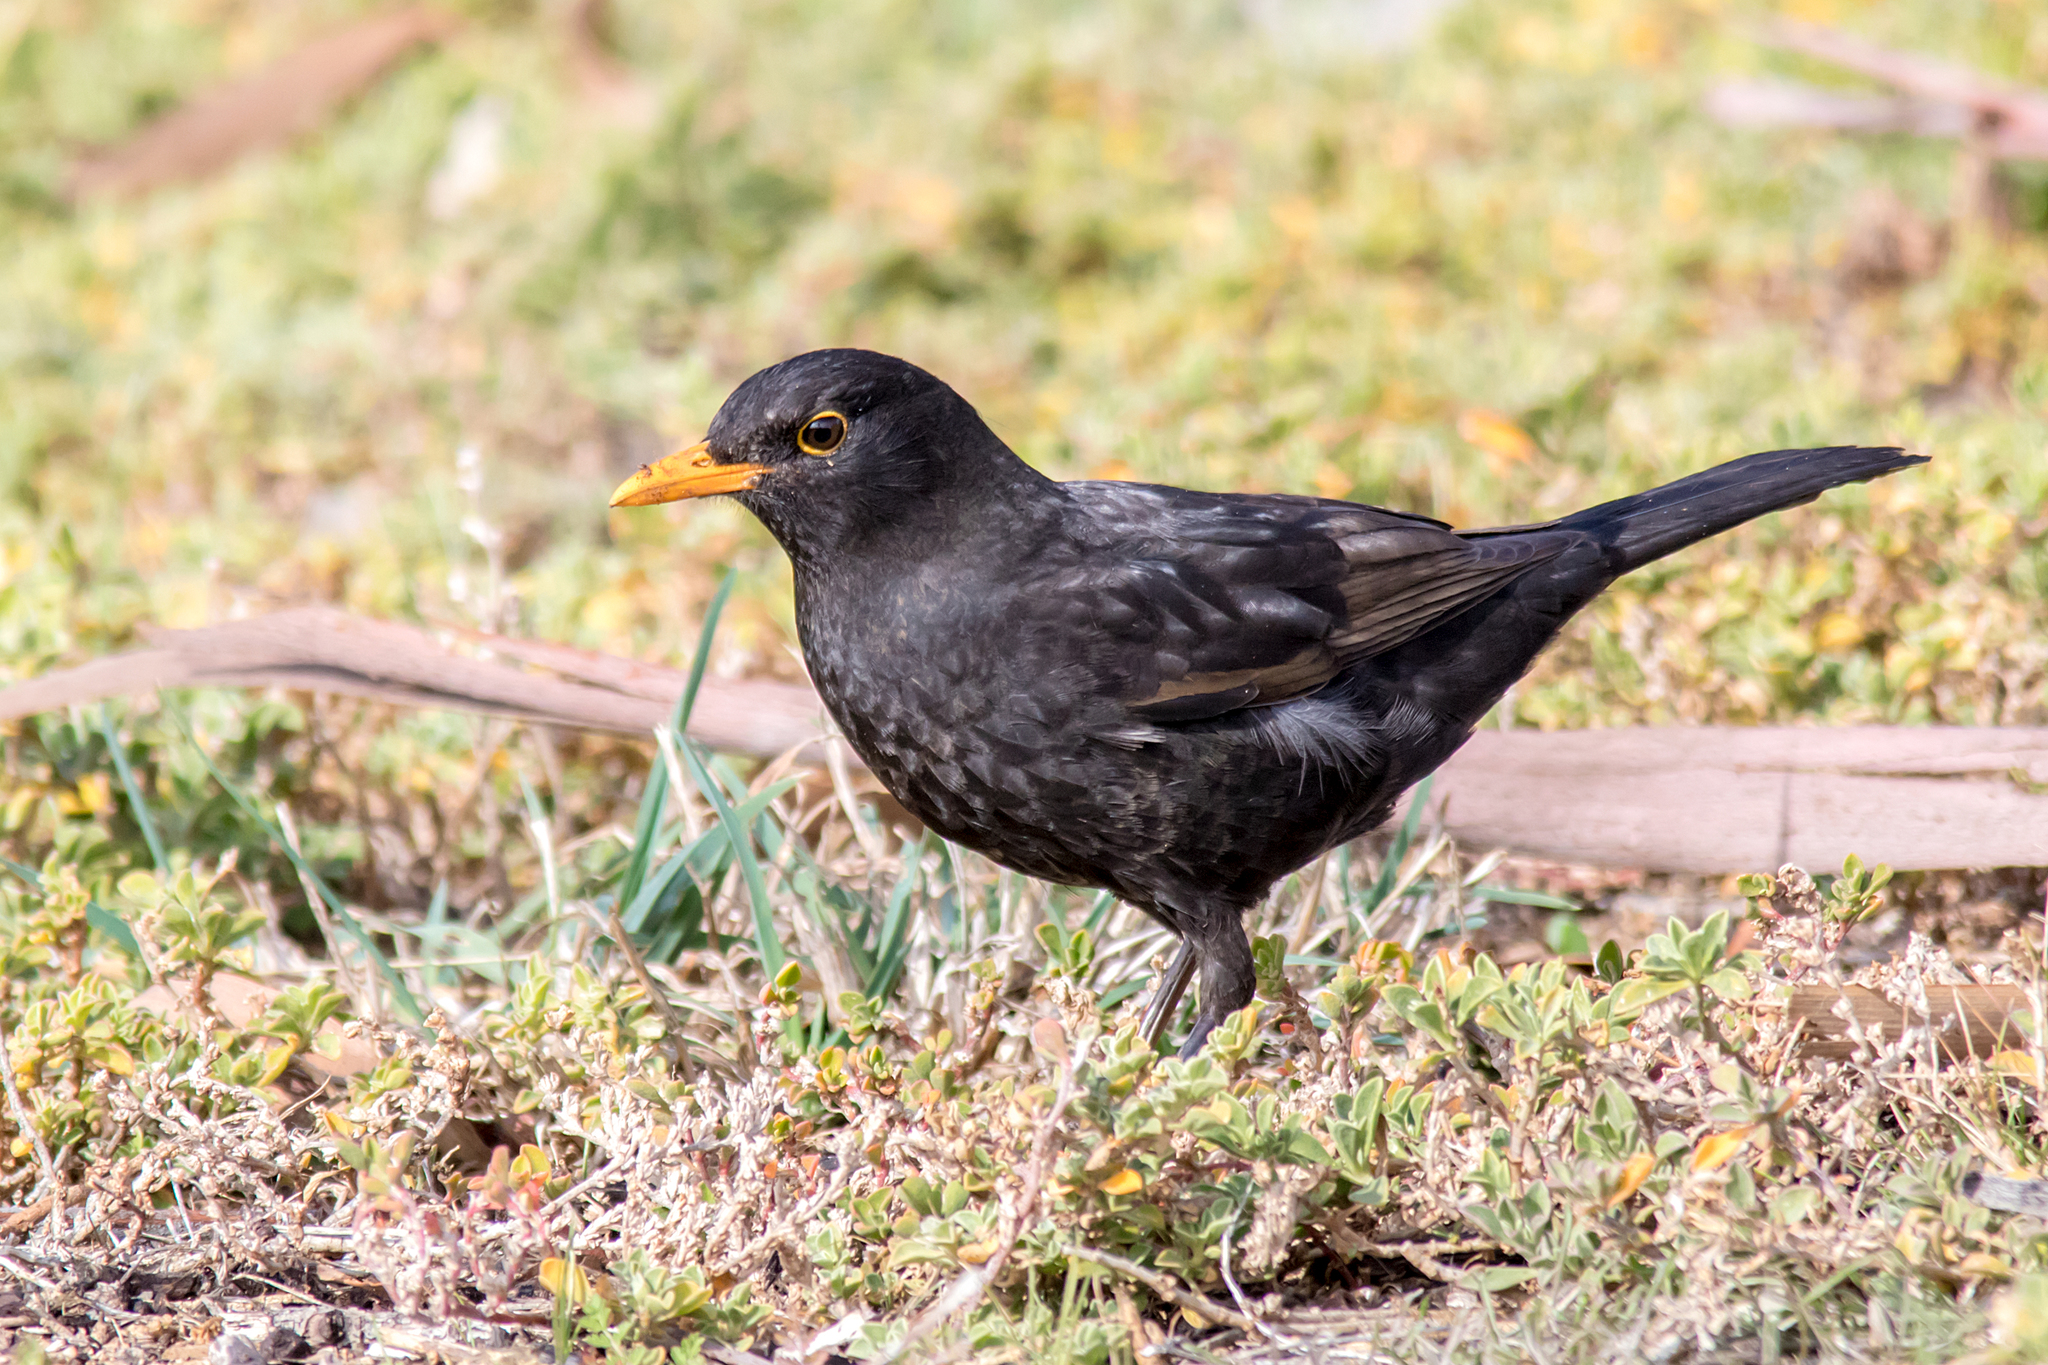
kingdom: Animalia
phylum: Chordata
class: Aves
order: Passeriformes
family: Turdidae
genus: Turdus
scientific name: Turdus merula
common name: Common blackbird
